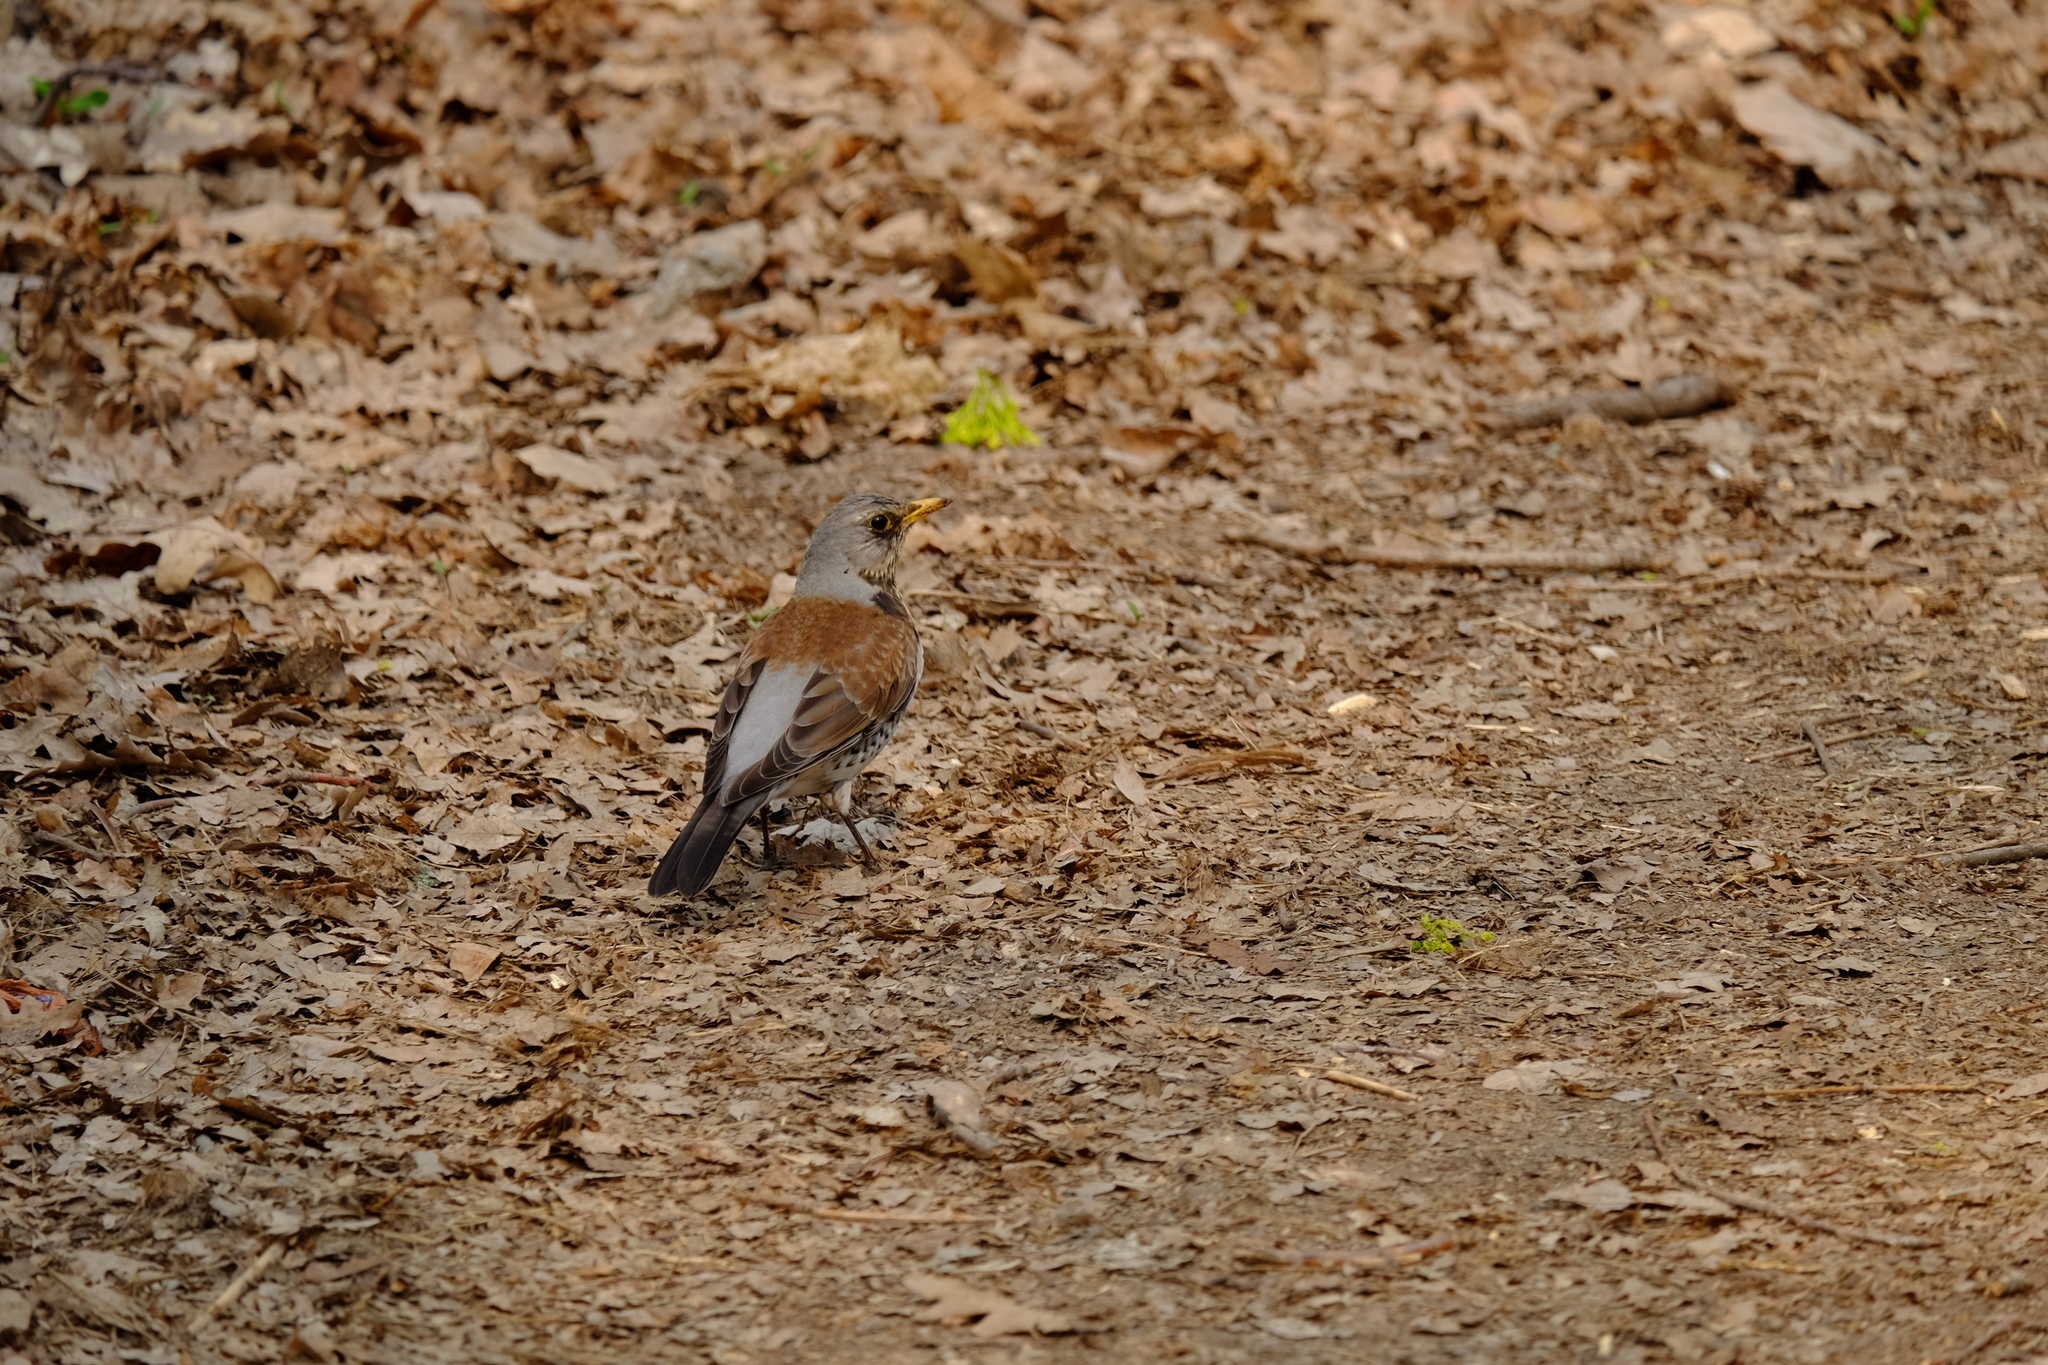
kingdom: Animalia
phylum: Chordata
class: Aves
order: Passeriformes
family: Turdidae
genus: Turdus
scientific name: Turdus pilaris
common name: Fieldfare
